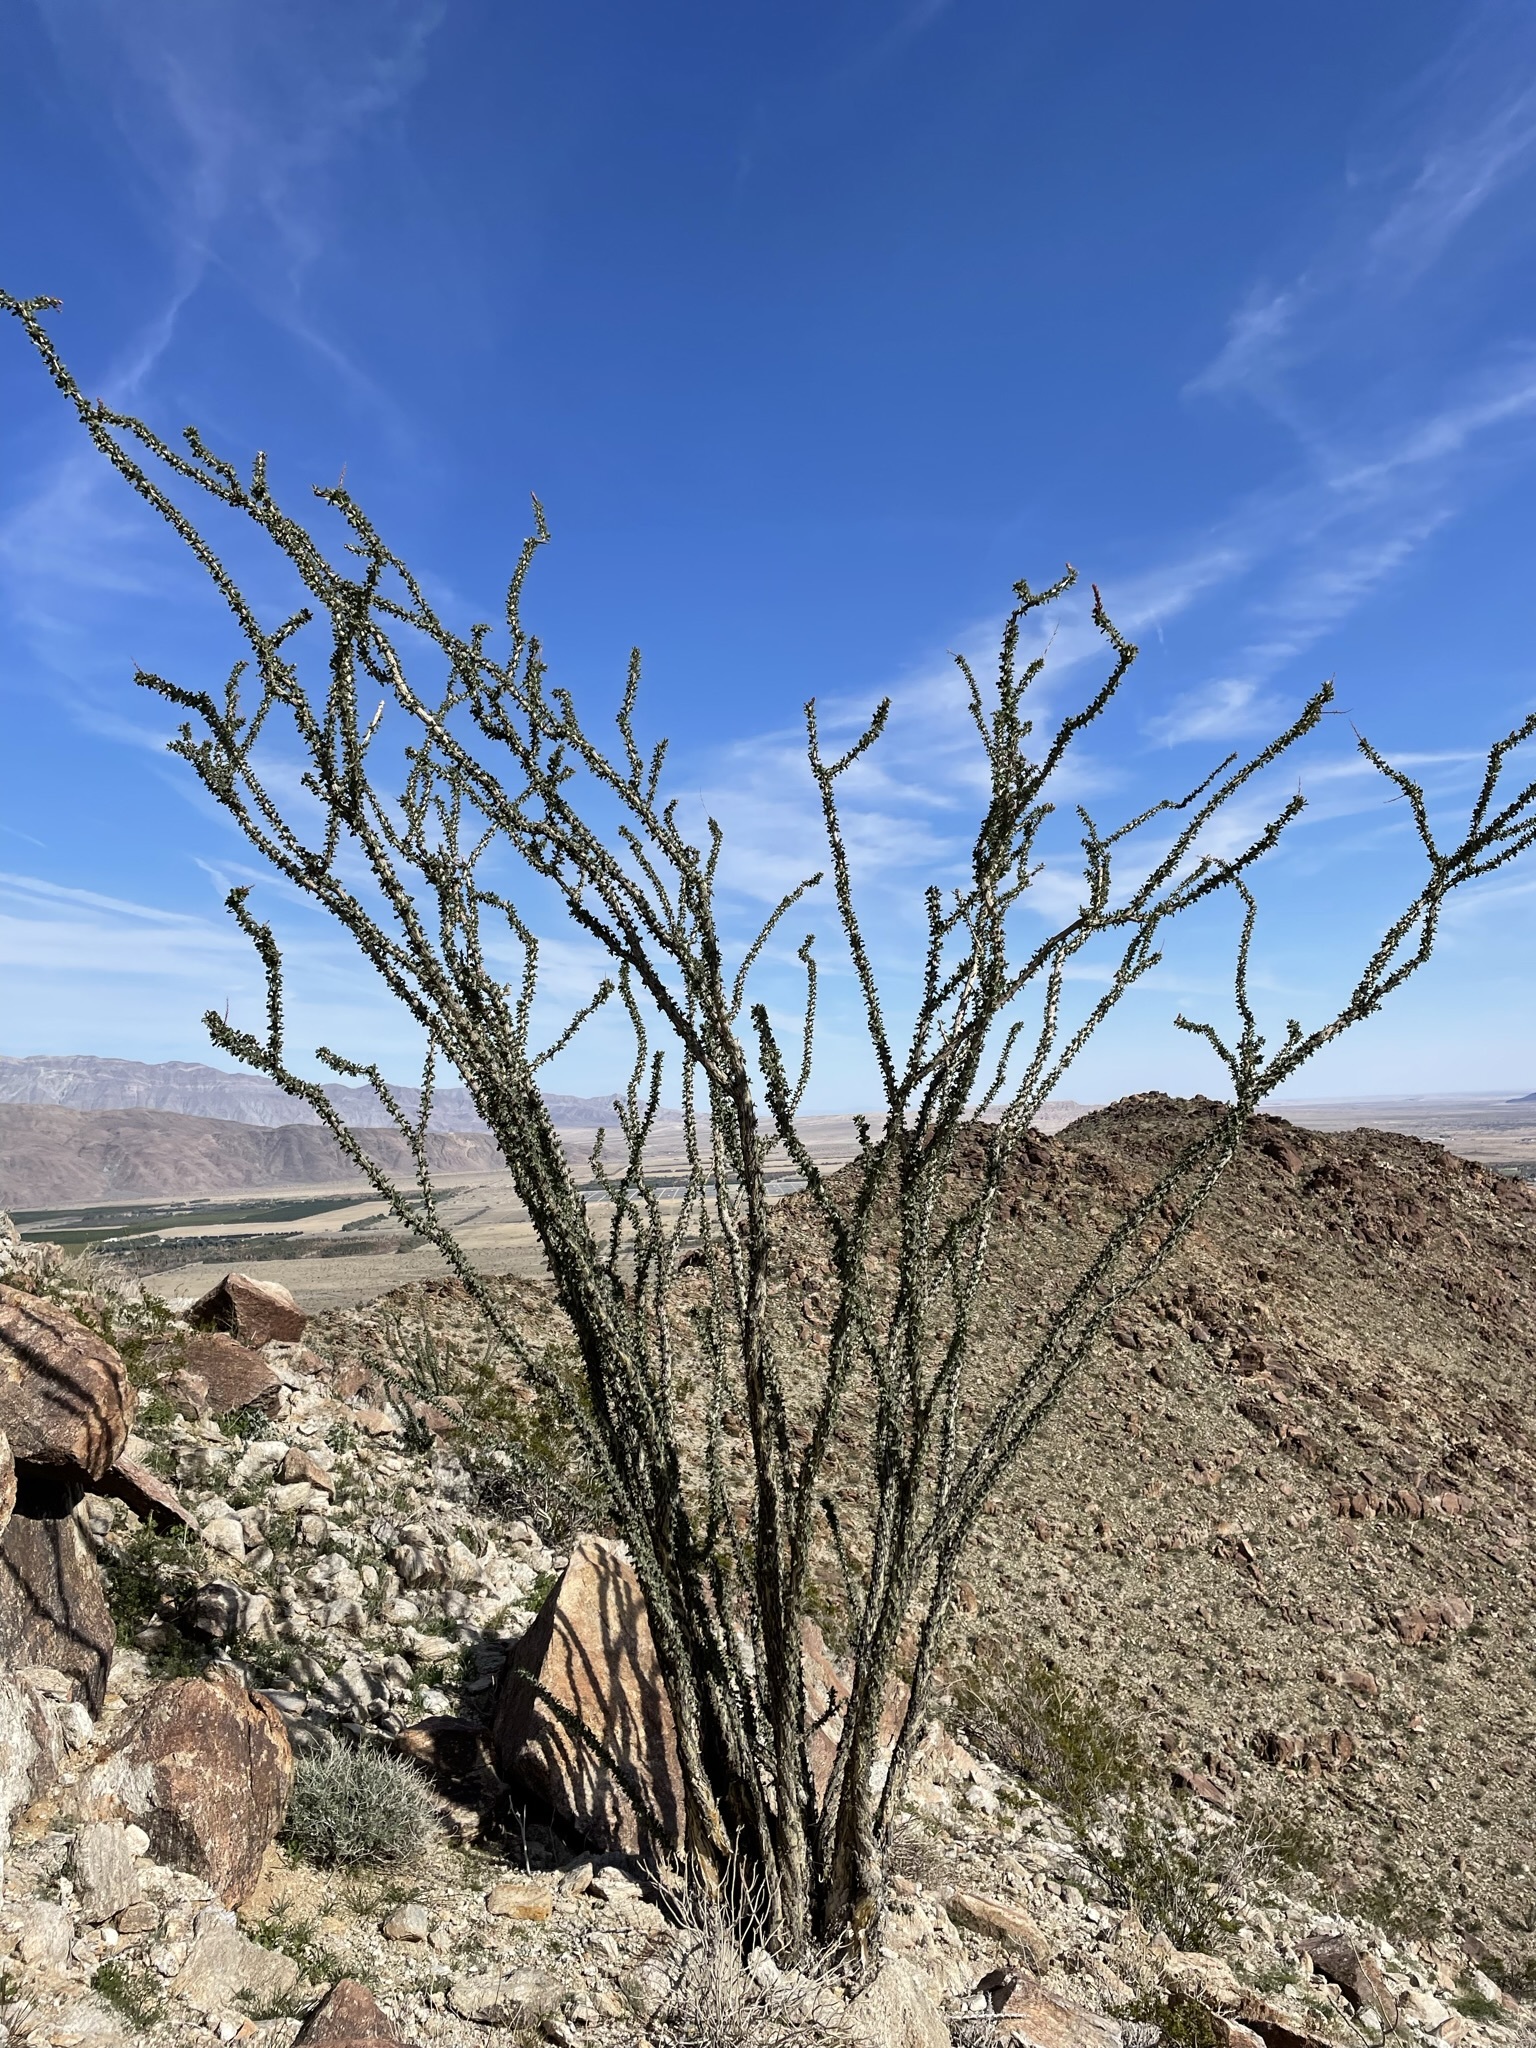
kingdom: Plantae
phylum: Tracheophyta
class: Magnoliopsida
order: Ericales
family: Fouquieriaceae
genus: Fouquieria
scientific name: Fouquieria splendens
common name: Vine-cactus
